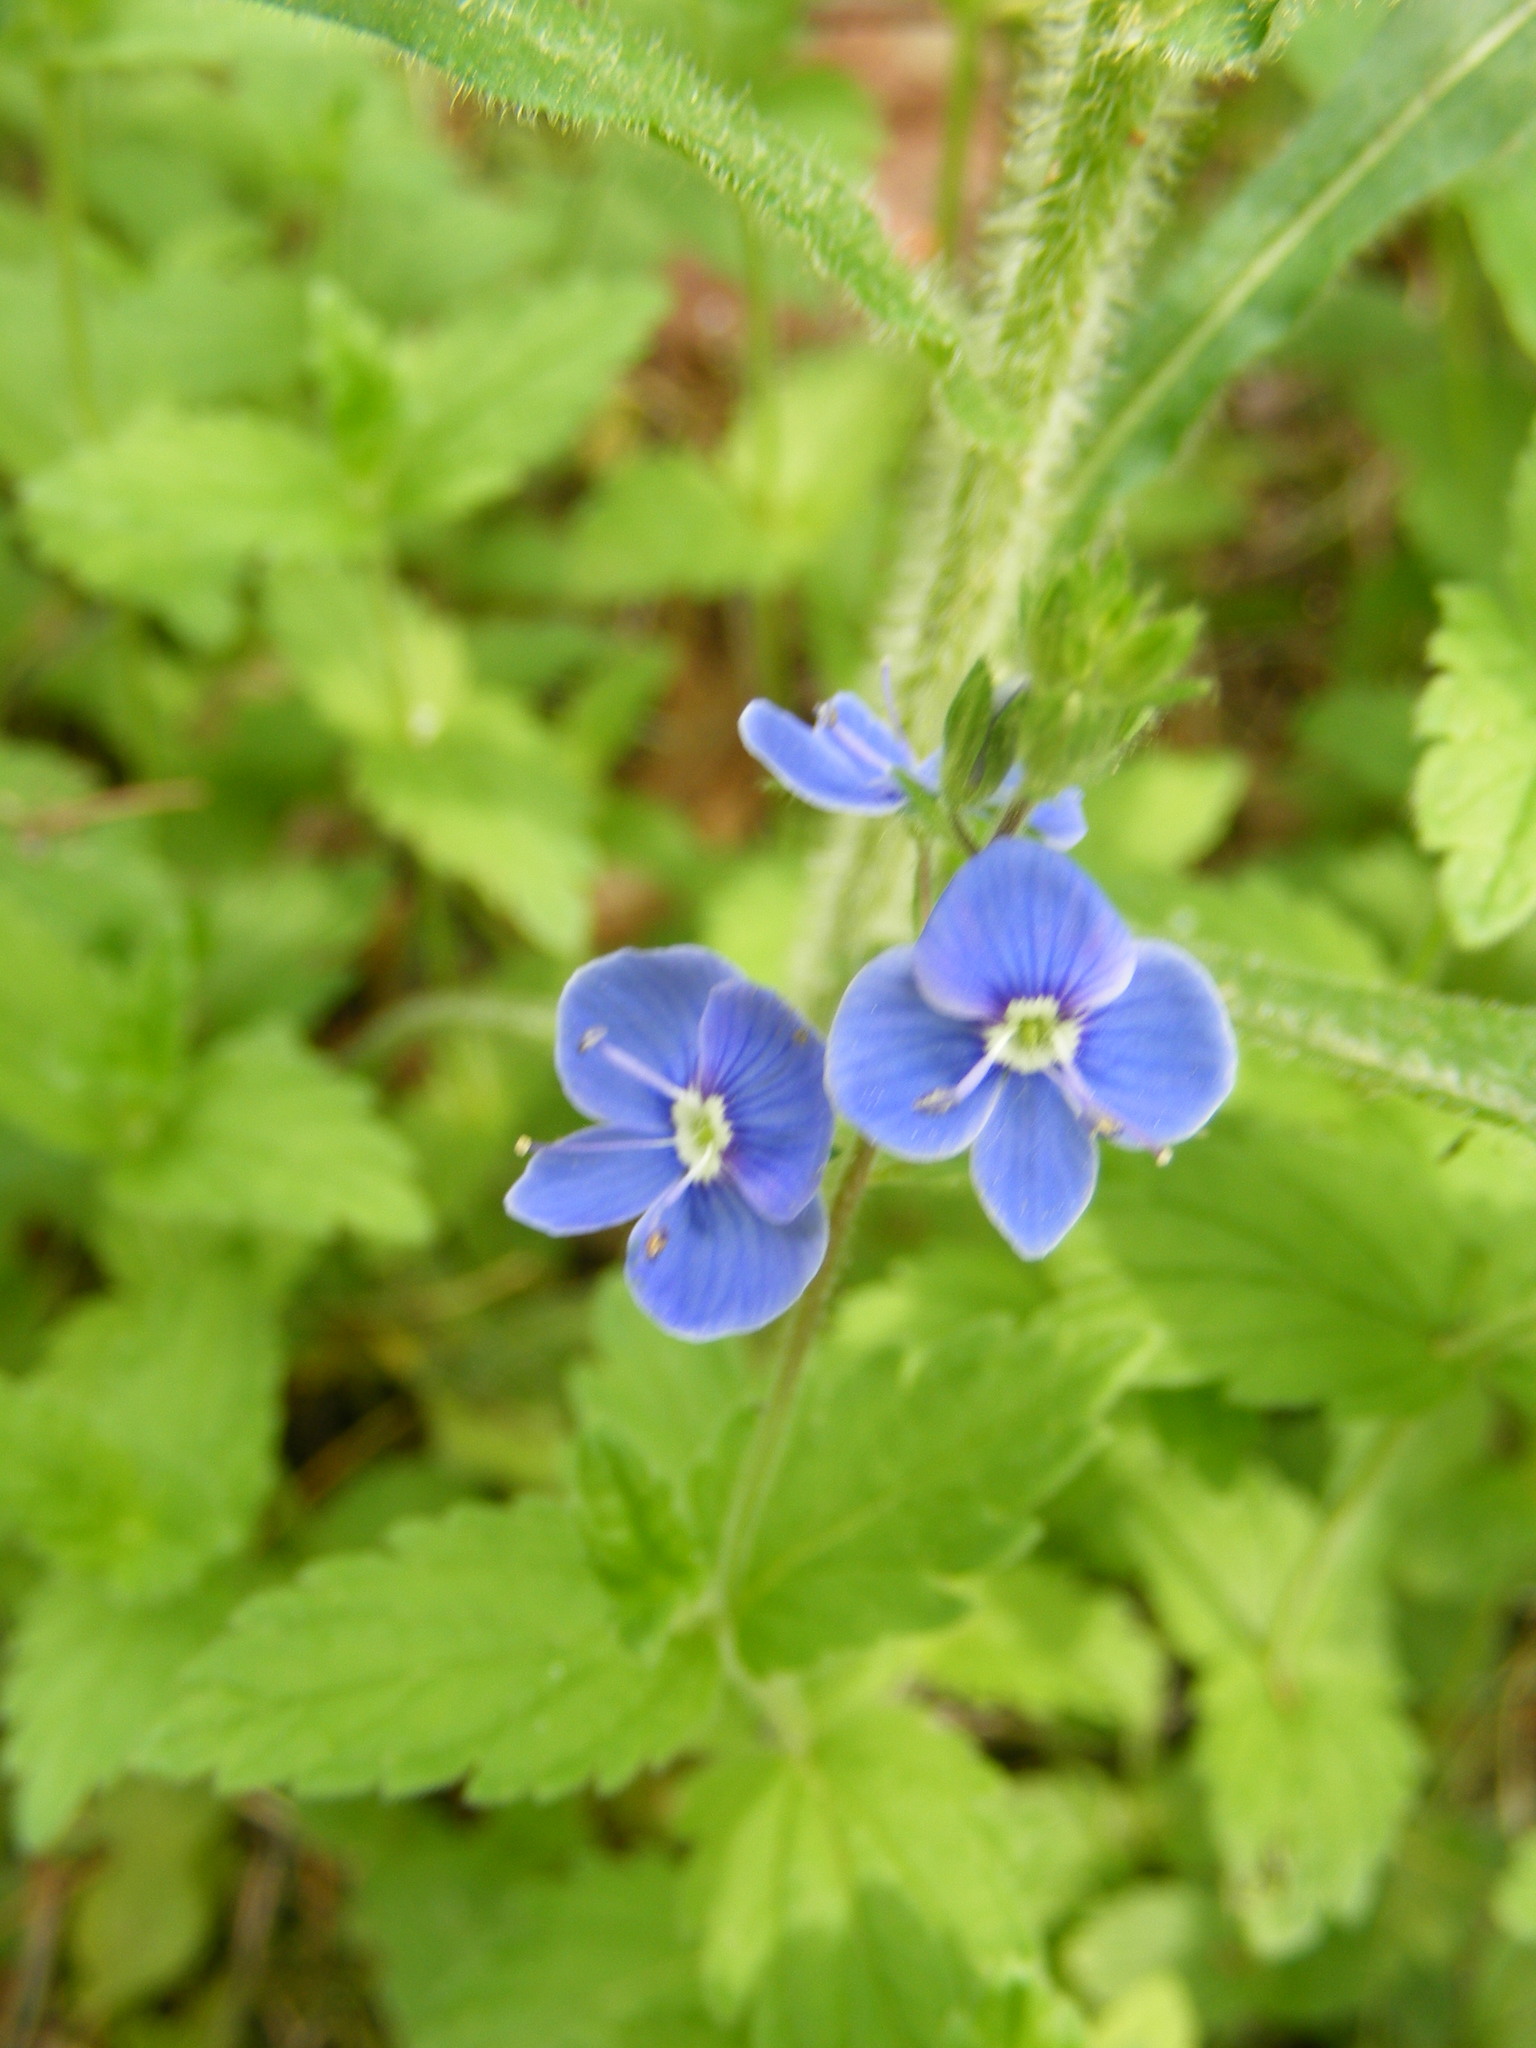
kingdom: Plantae
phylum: Tracheophyta
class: Magnoliopsida
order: Lamiales
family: Plantaginaceae
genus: Veronica
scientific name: Veronica chamaedrys
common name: Germander speedwell
